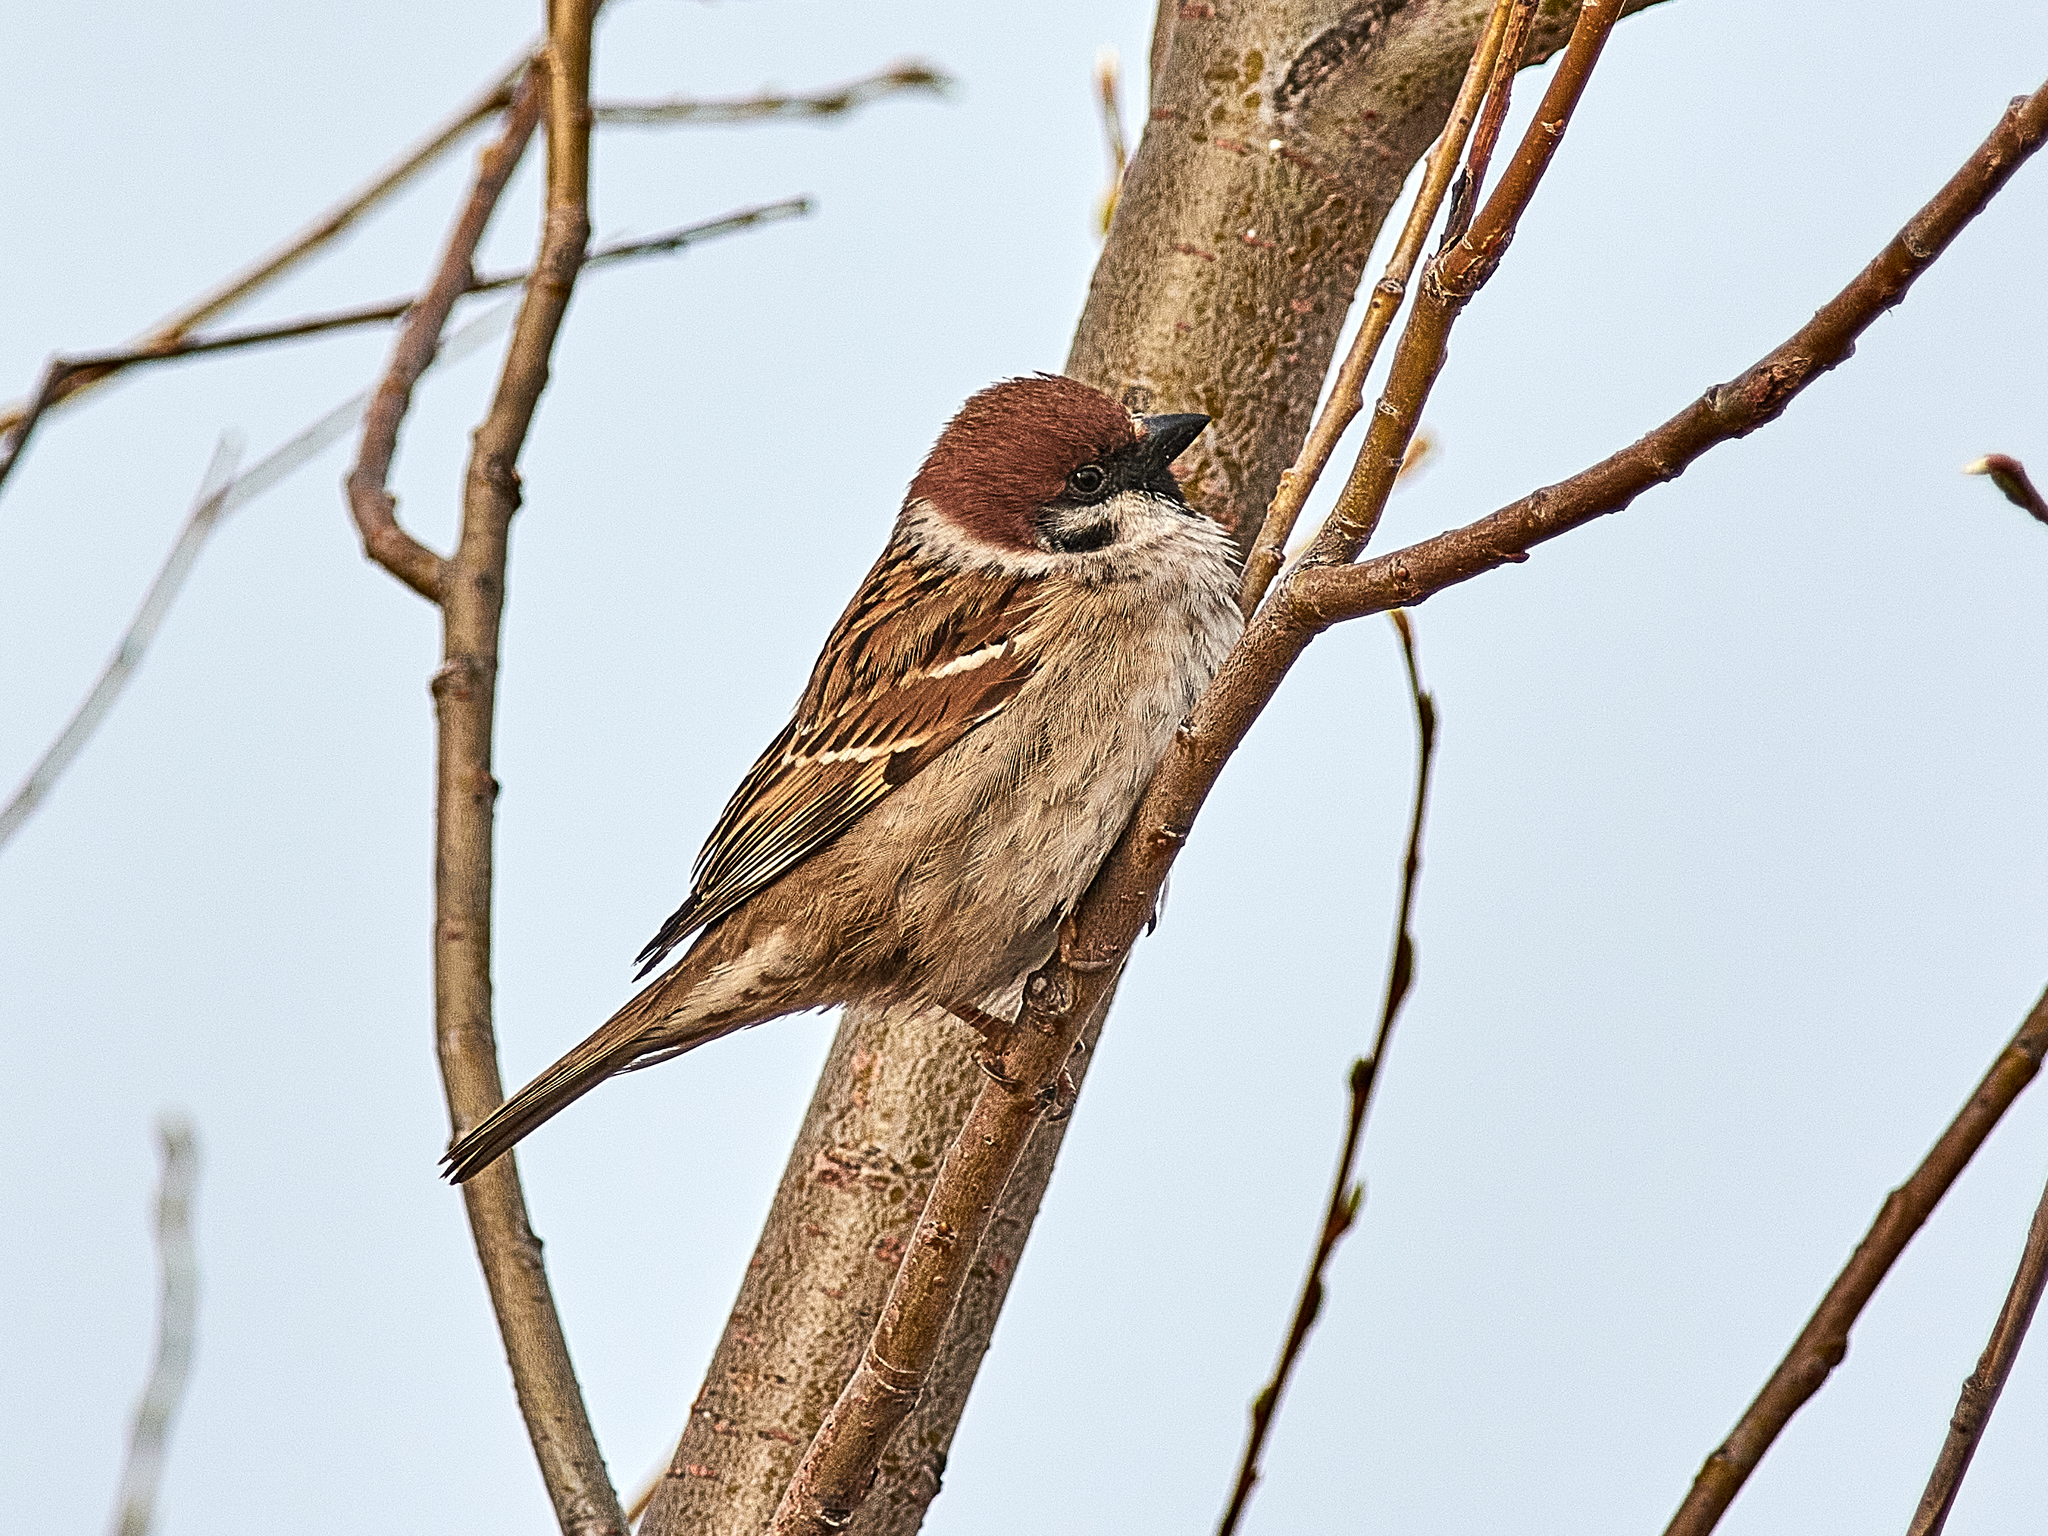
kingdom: Animalia
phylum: Chordata
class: Aves
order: Passeriformes
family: Passeridae
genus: Passer
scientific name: Passer montanus
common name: Eurasian tree sparrow
